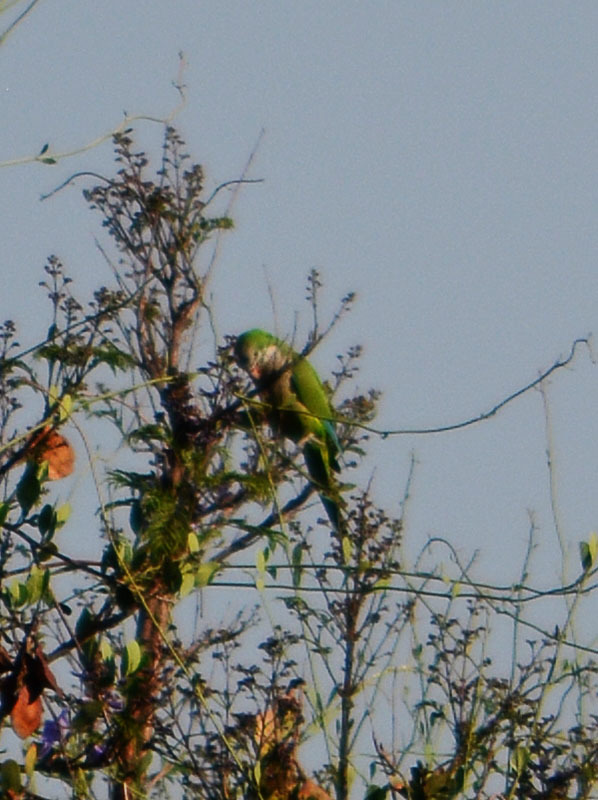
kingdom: Animalia
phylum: Chordata
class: Aves
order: Psittaciformes
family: Psittacidae
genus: Myiopsitta
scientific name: Myiopsitta monachus
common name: Monk parakeet
